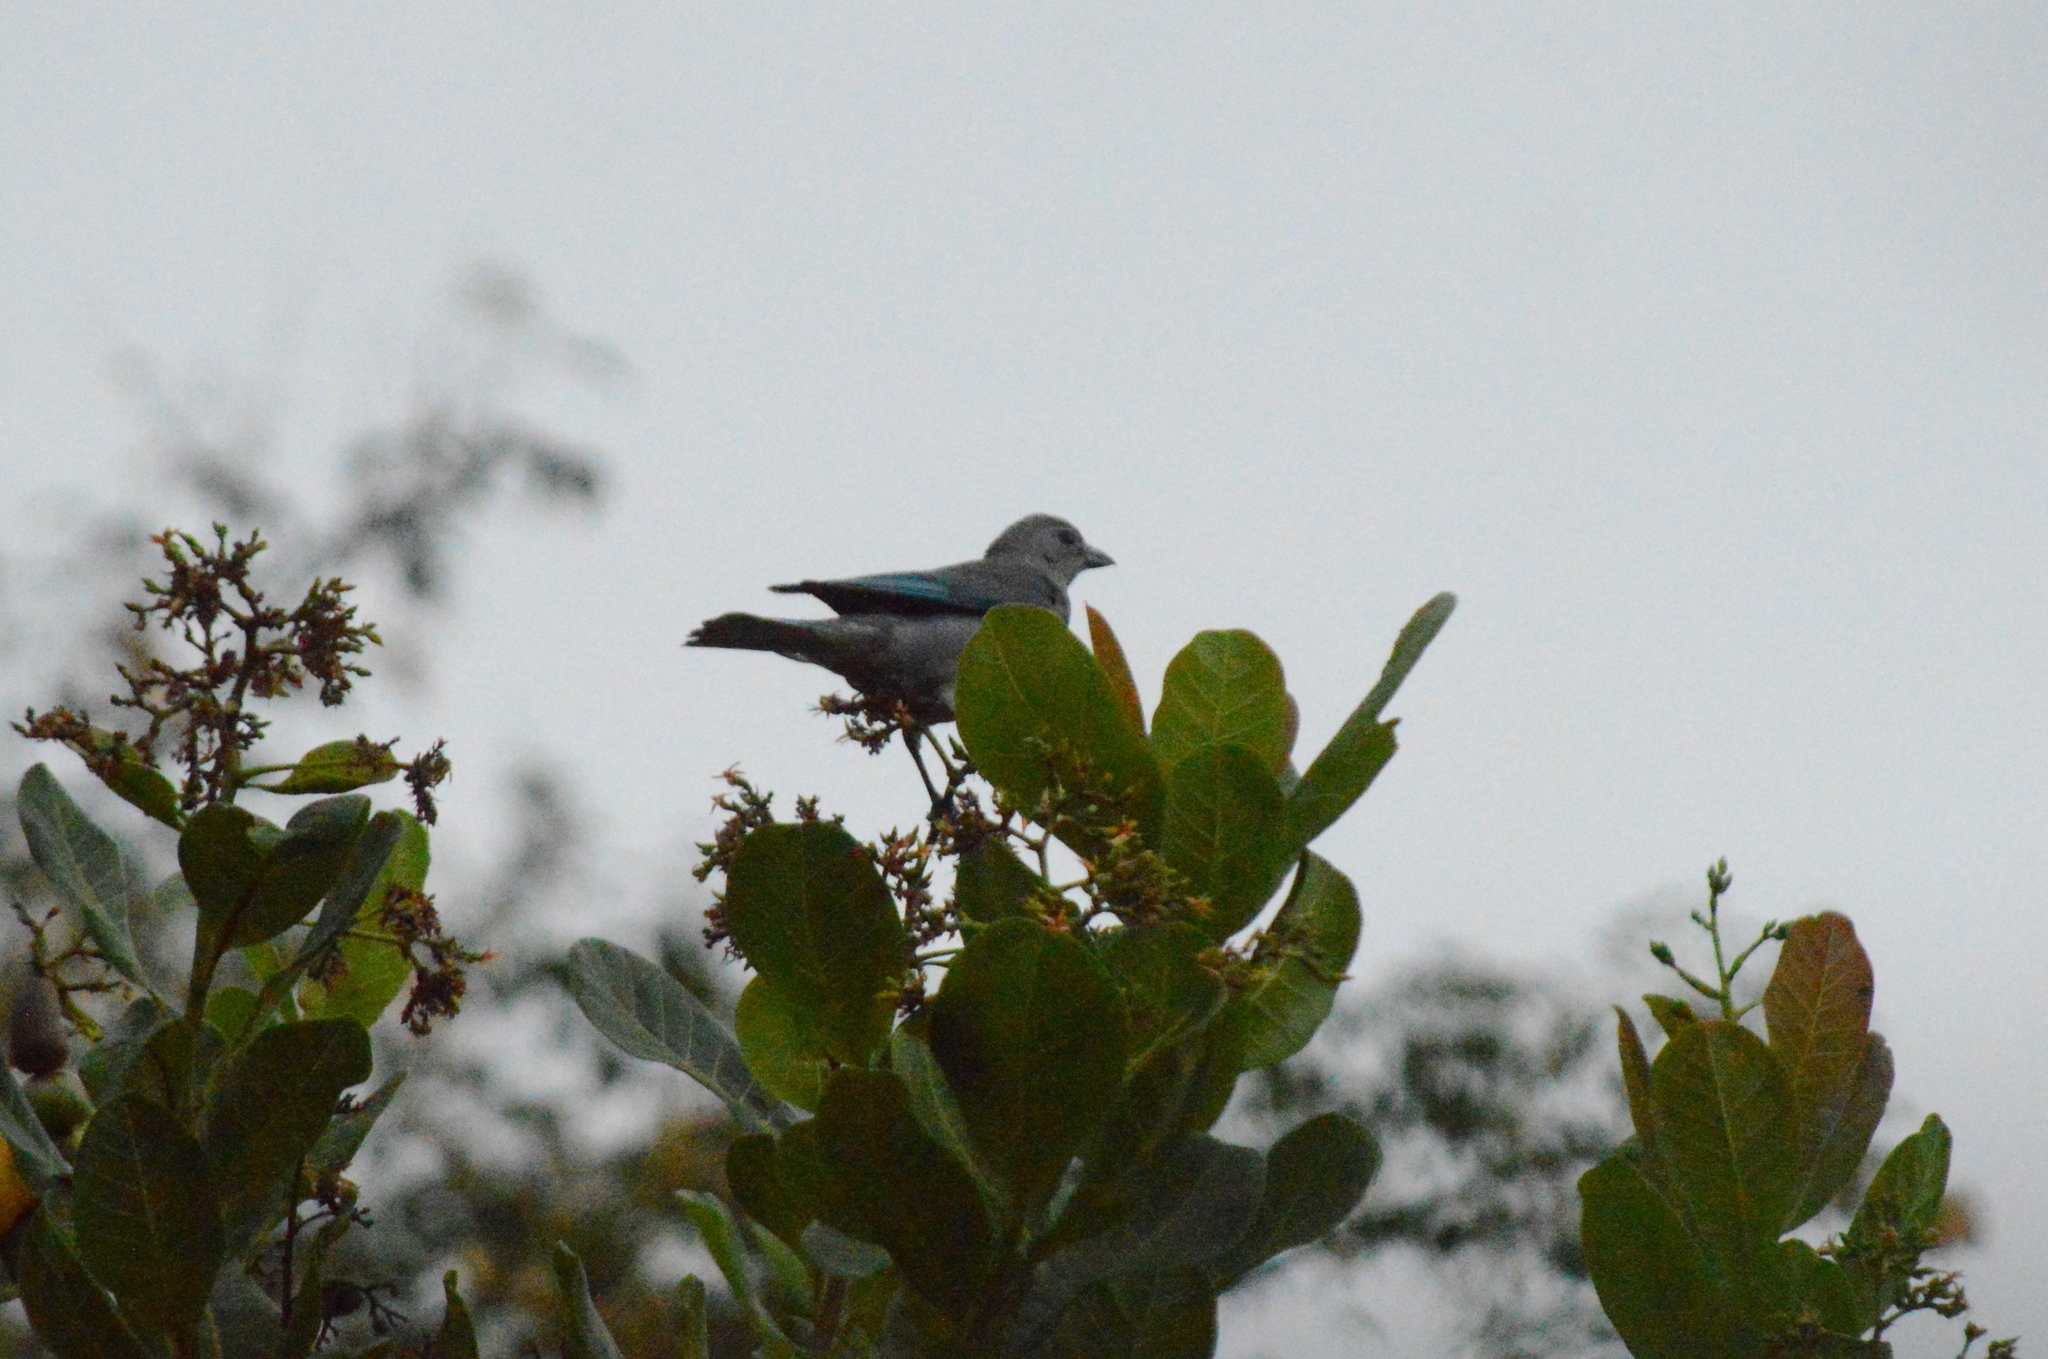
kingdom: Animalia
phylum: Chordata
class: Aves
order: Passeriformes
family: Thraupidae
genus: Thraupis
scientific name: Thraupis sayaca
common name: Sayaca tanager
